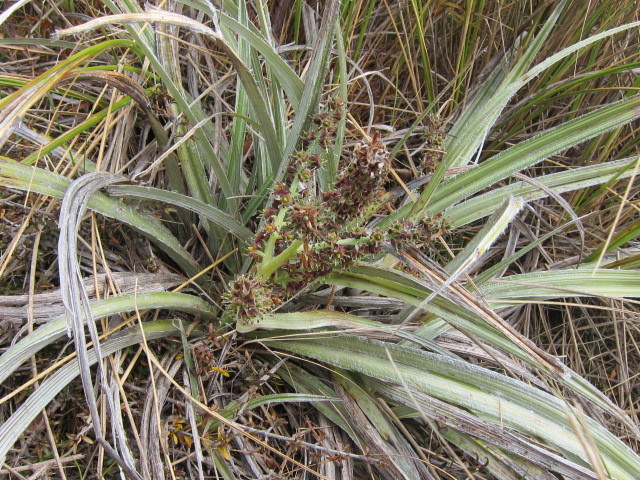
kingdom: Plantae
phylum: Tracheophyta
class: Liliopsida
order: Asparagales
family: Asteliaceae
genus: Astelia
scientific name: Astelia nervosa
